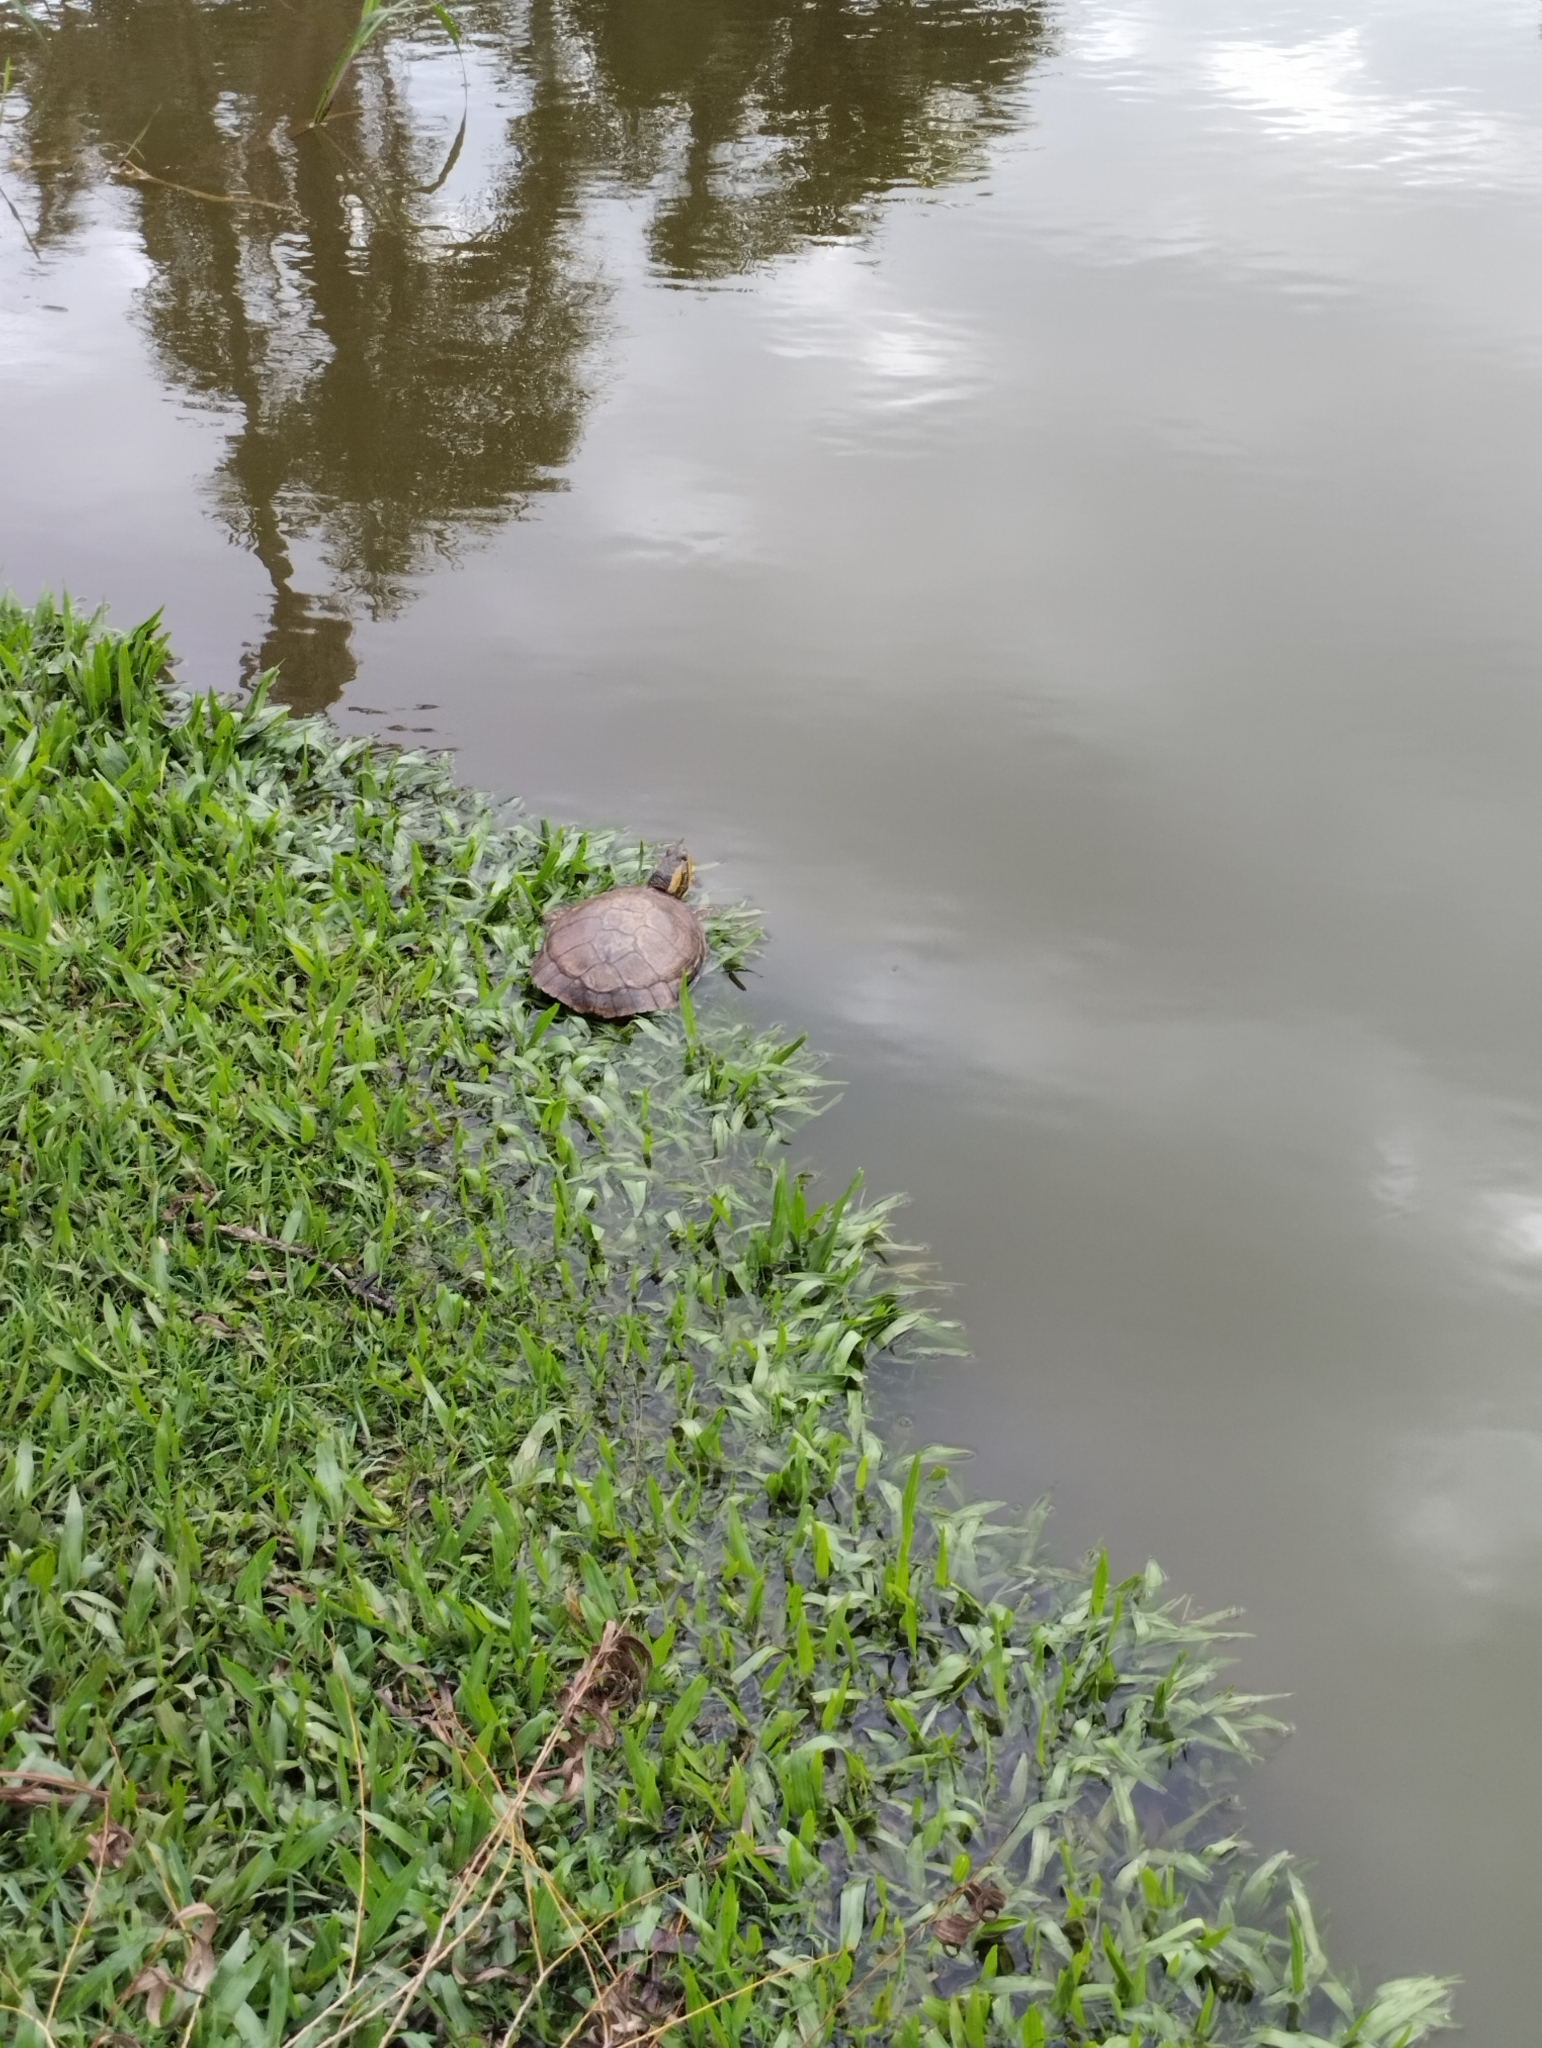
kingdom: Animalia
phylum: Chordata
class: Testudines
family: Emydidae
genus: Trachemys
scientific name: Trachemys dorbigni
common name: Black-bellied slider
